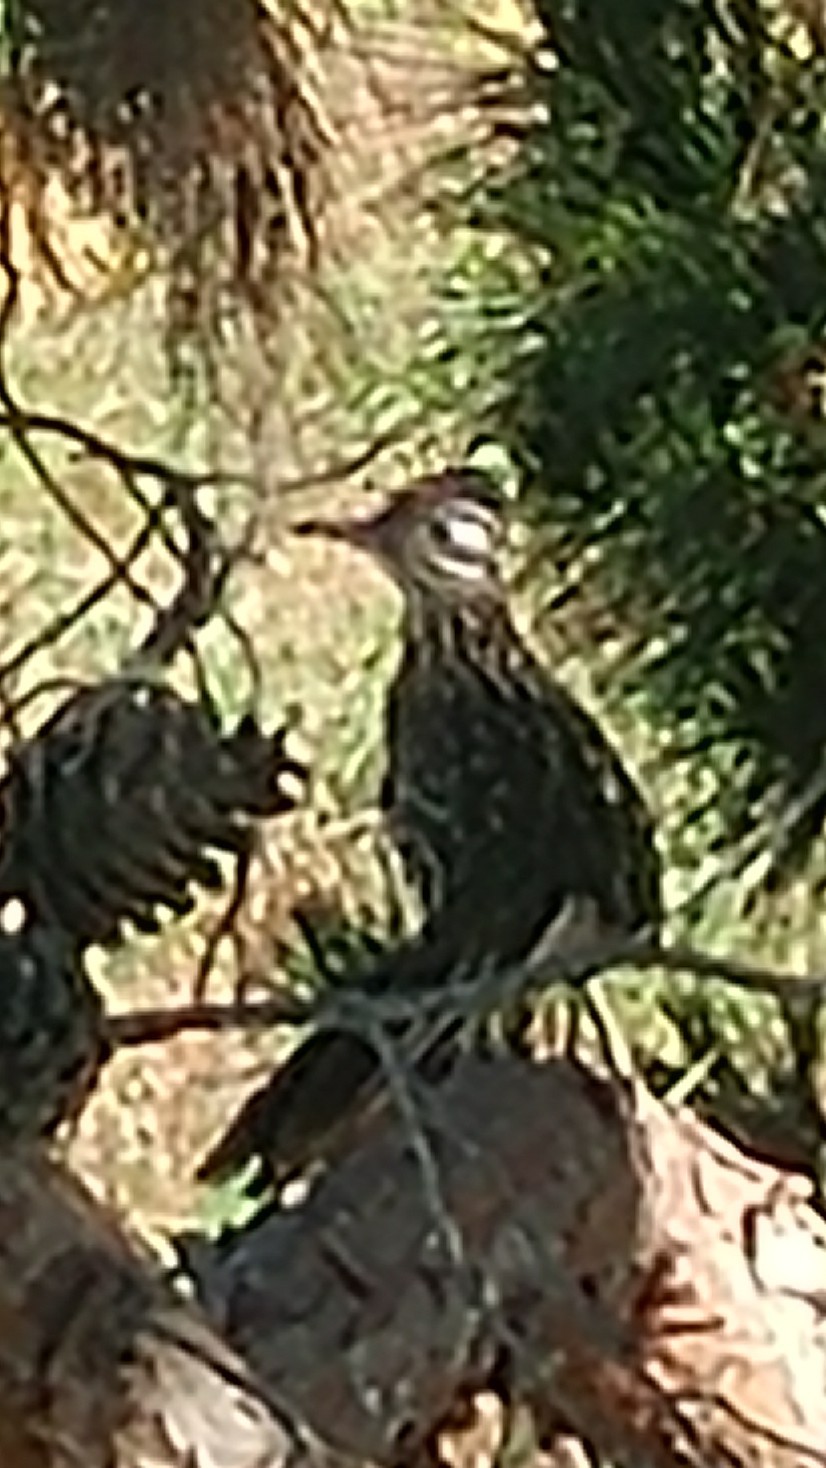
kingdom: Animalia
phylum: Chordata
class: Aves
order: Cuculiformes
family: Cuculidae
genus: Geococcyx
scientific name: Geococcyx californianus
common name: Greater roadrunner
